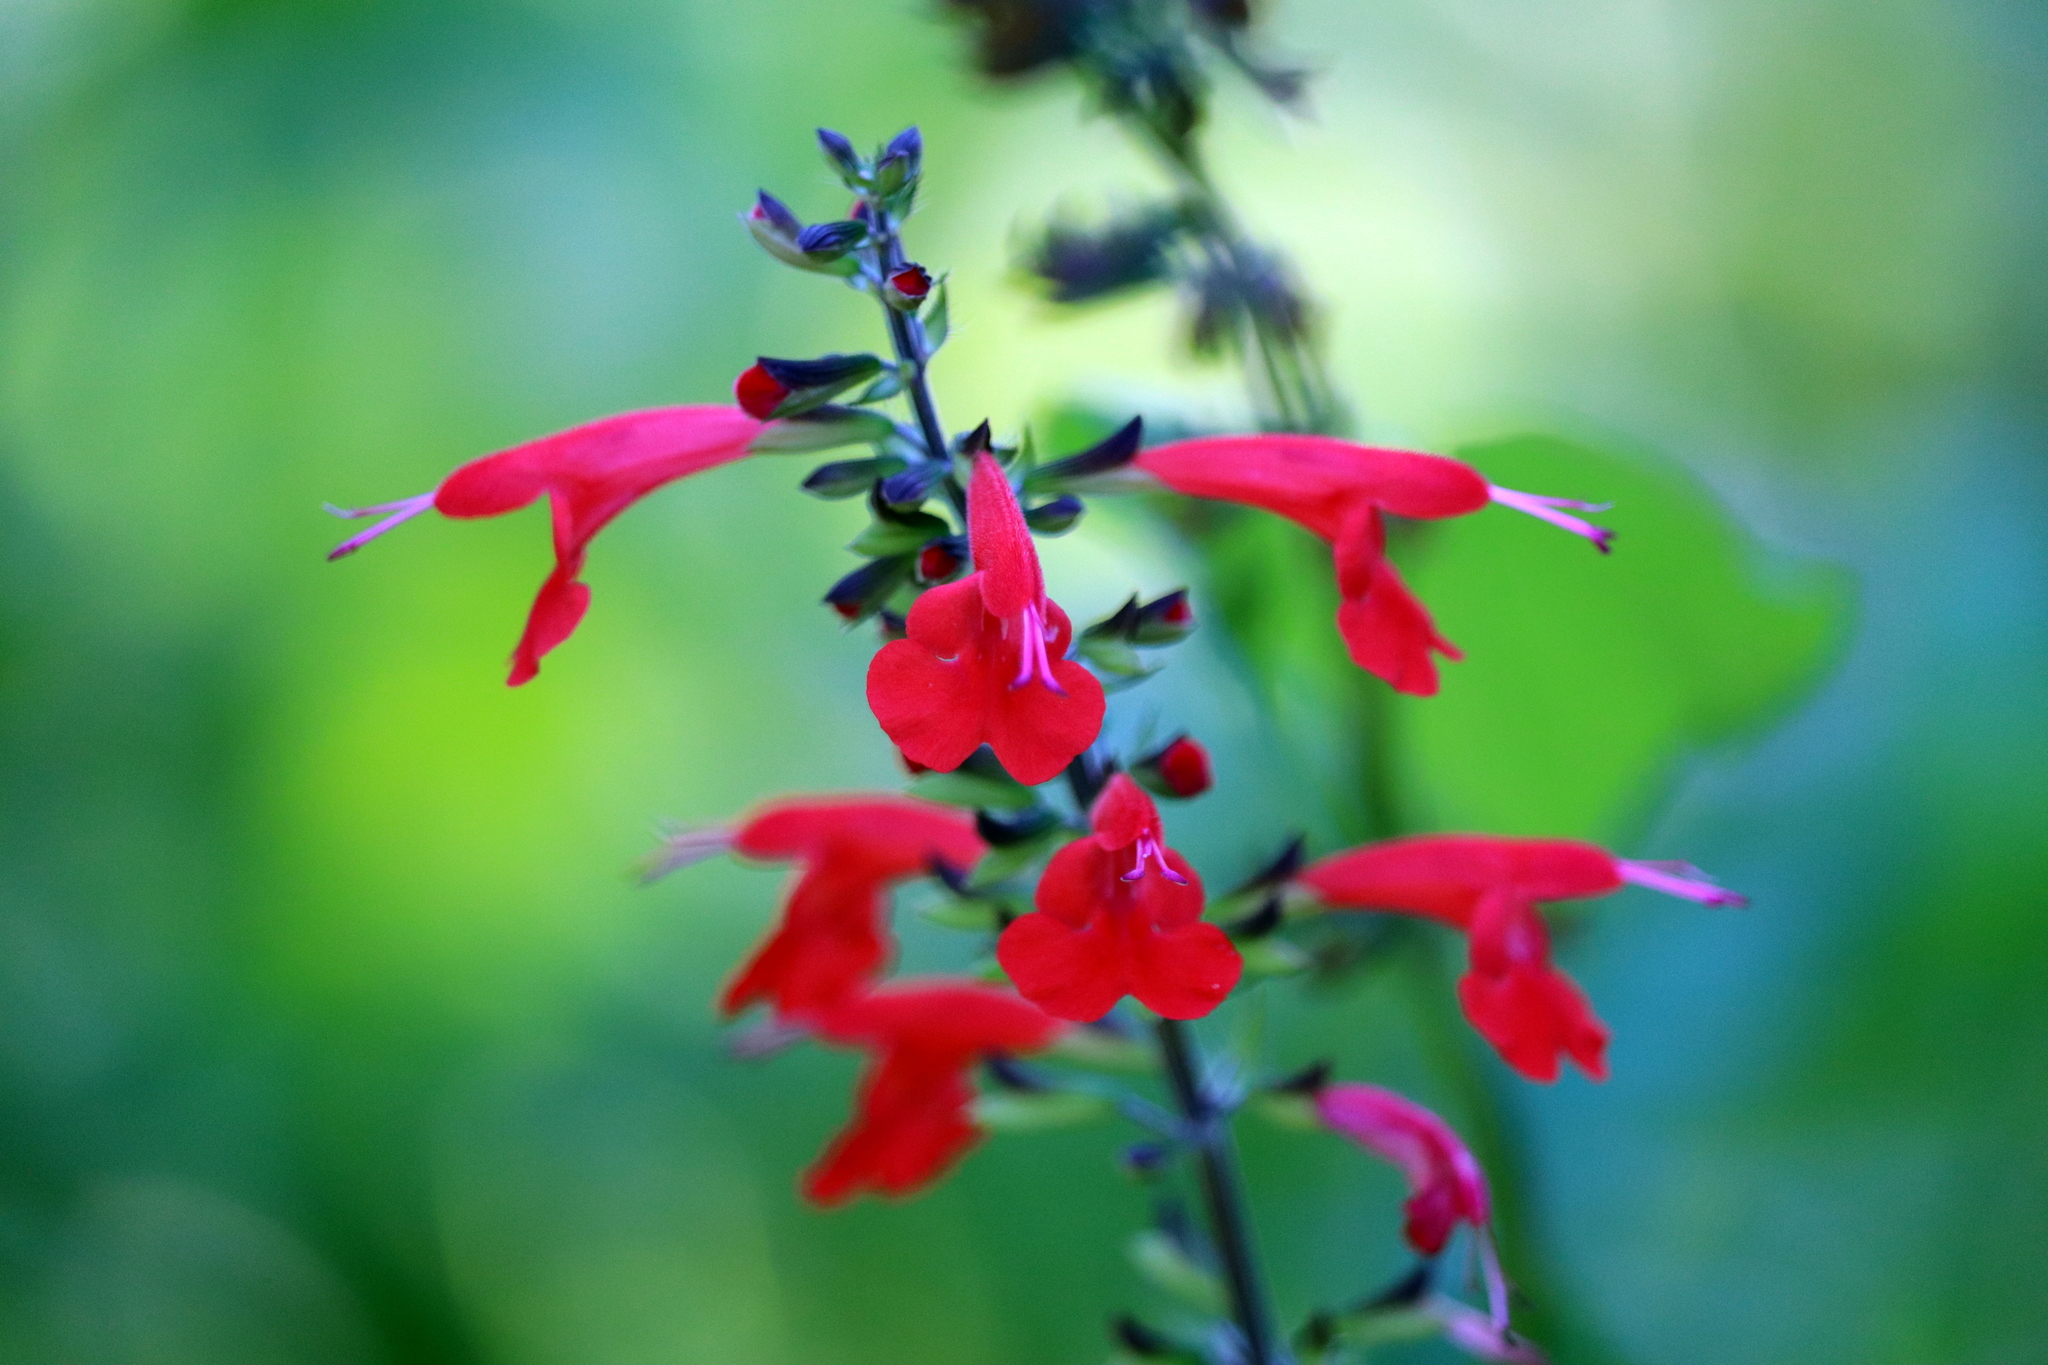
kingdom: Plantae
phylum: Tracheophyta
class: Magnoliopsida
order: Lamiales
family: Lamiaceae
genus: Salvia
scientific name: Salvia coccinea
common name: Blood sage
